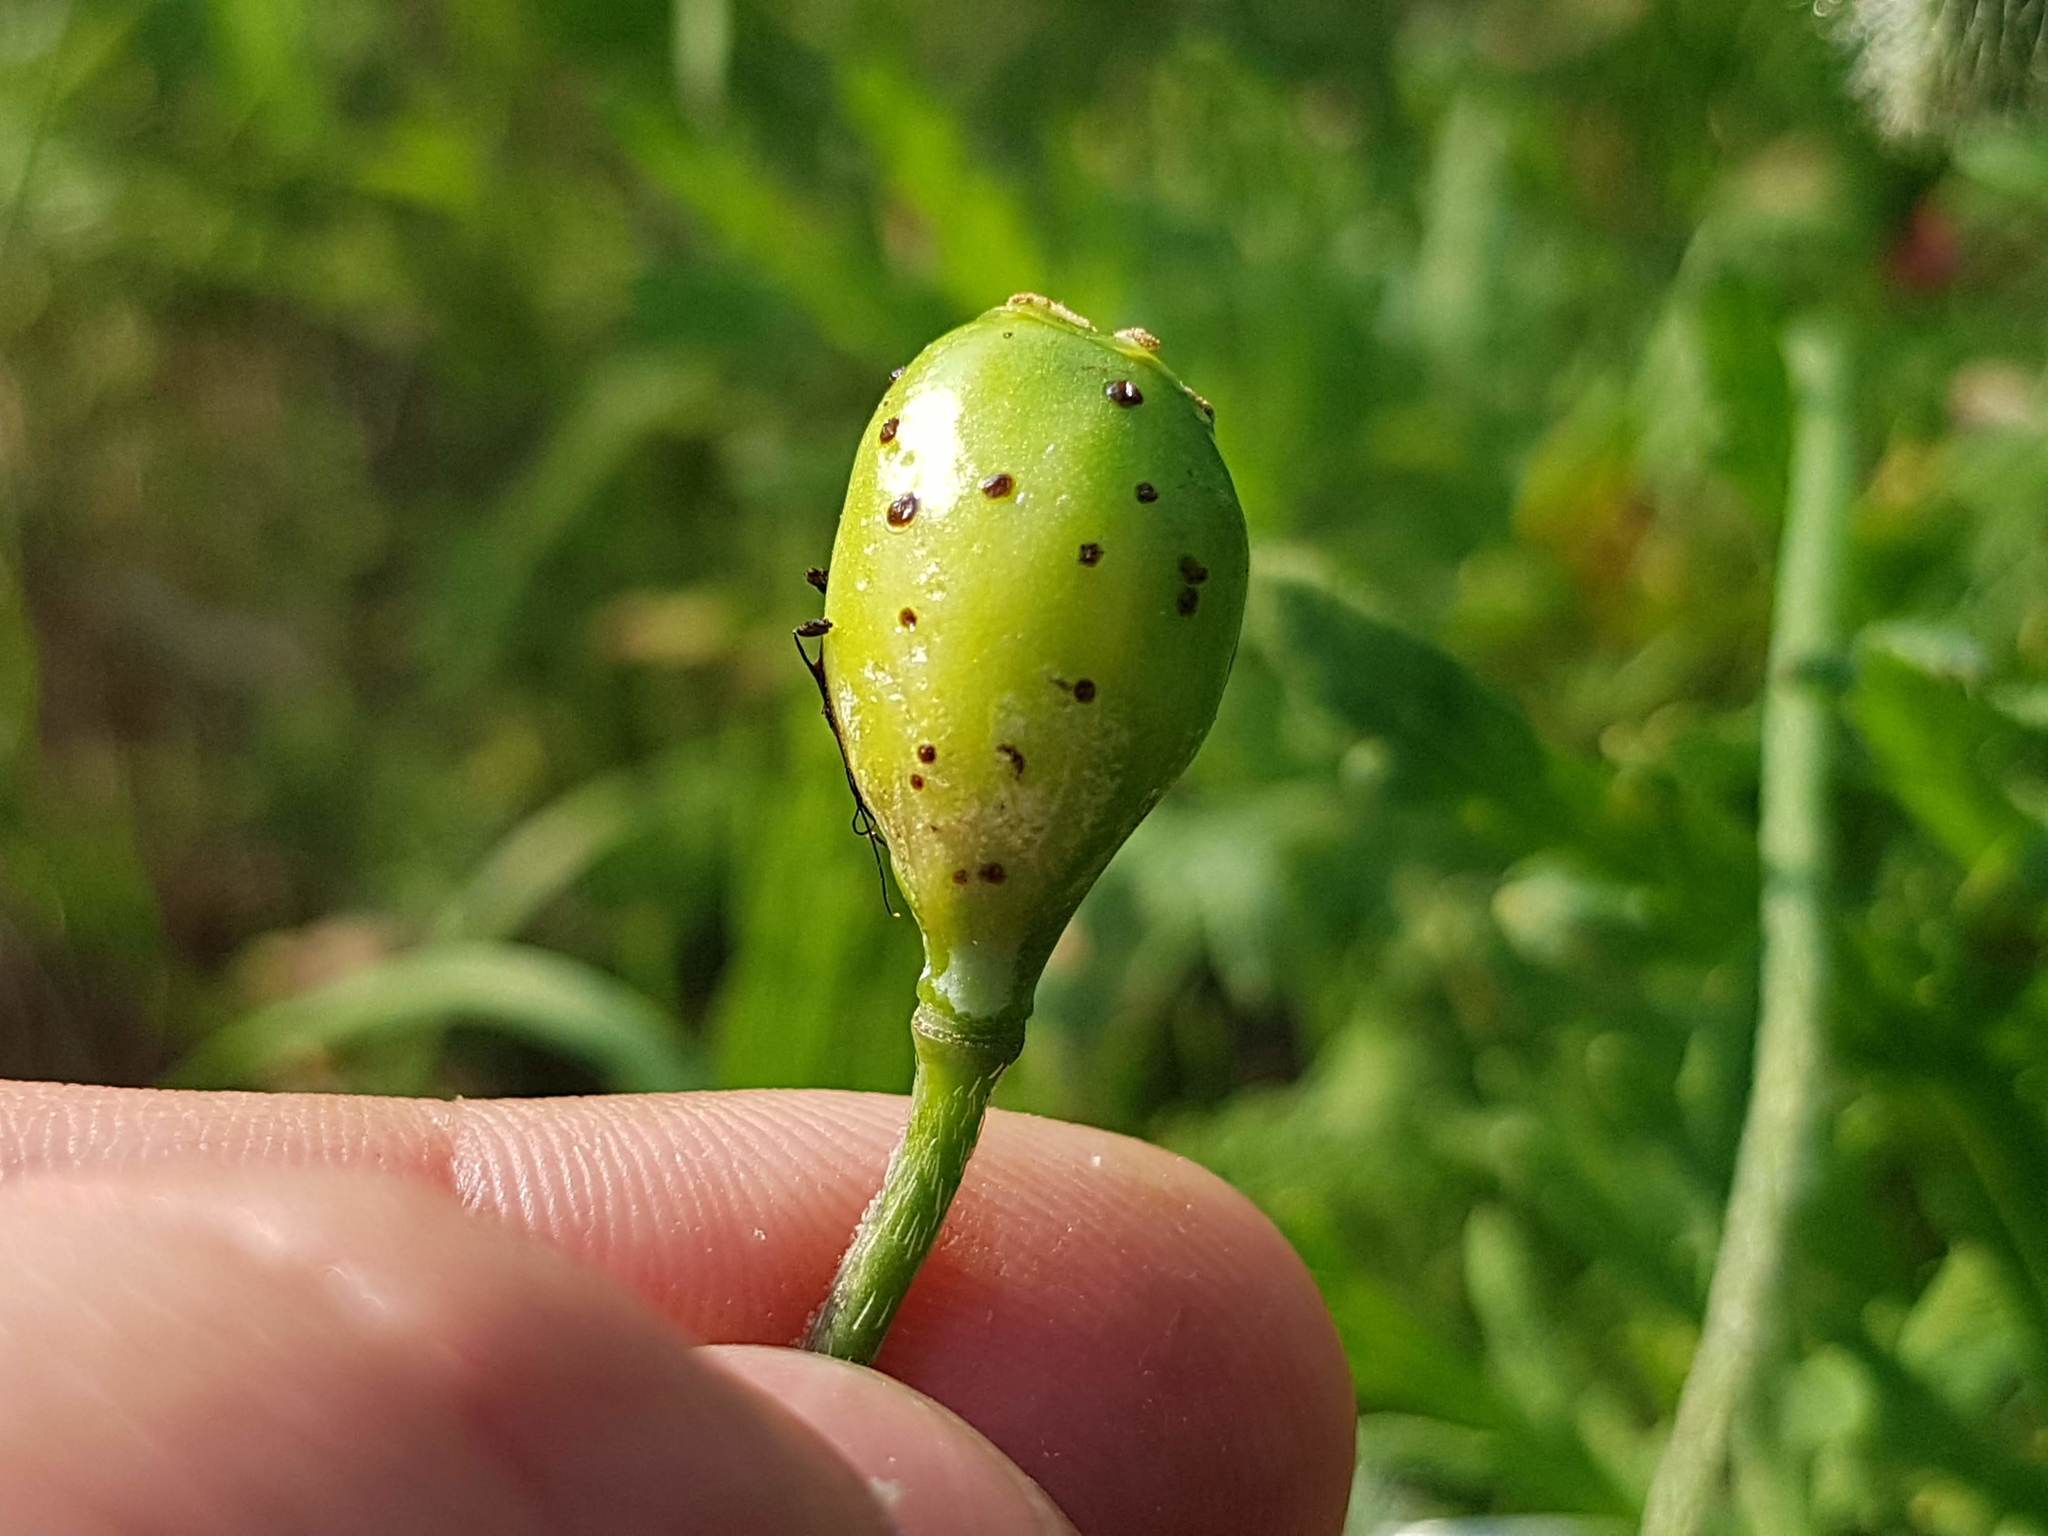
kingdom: Animalia
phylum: Arthropoda
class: Insecta
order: Hymenoptera
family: Cynipidae
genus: Aylax
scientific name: Aylax papaveris
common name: Gall wasp
